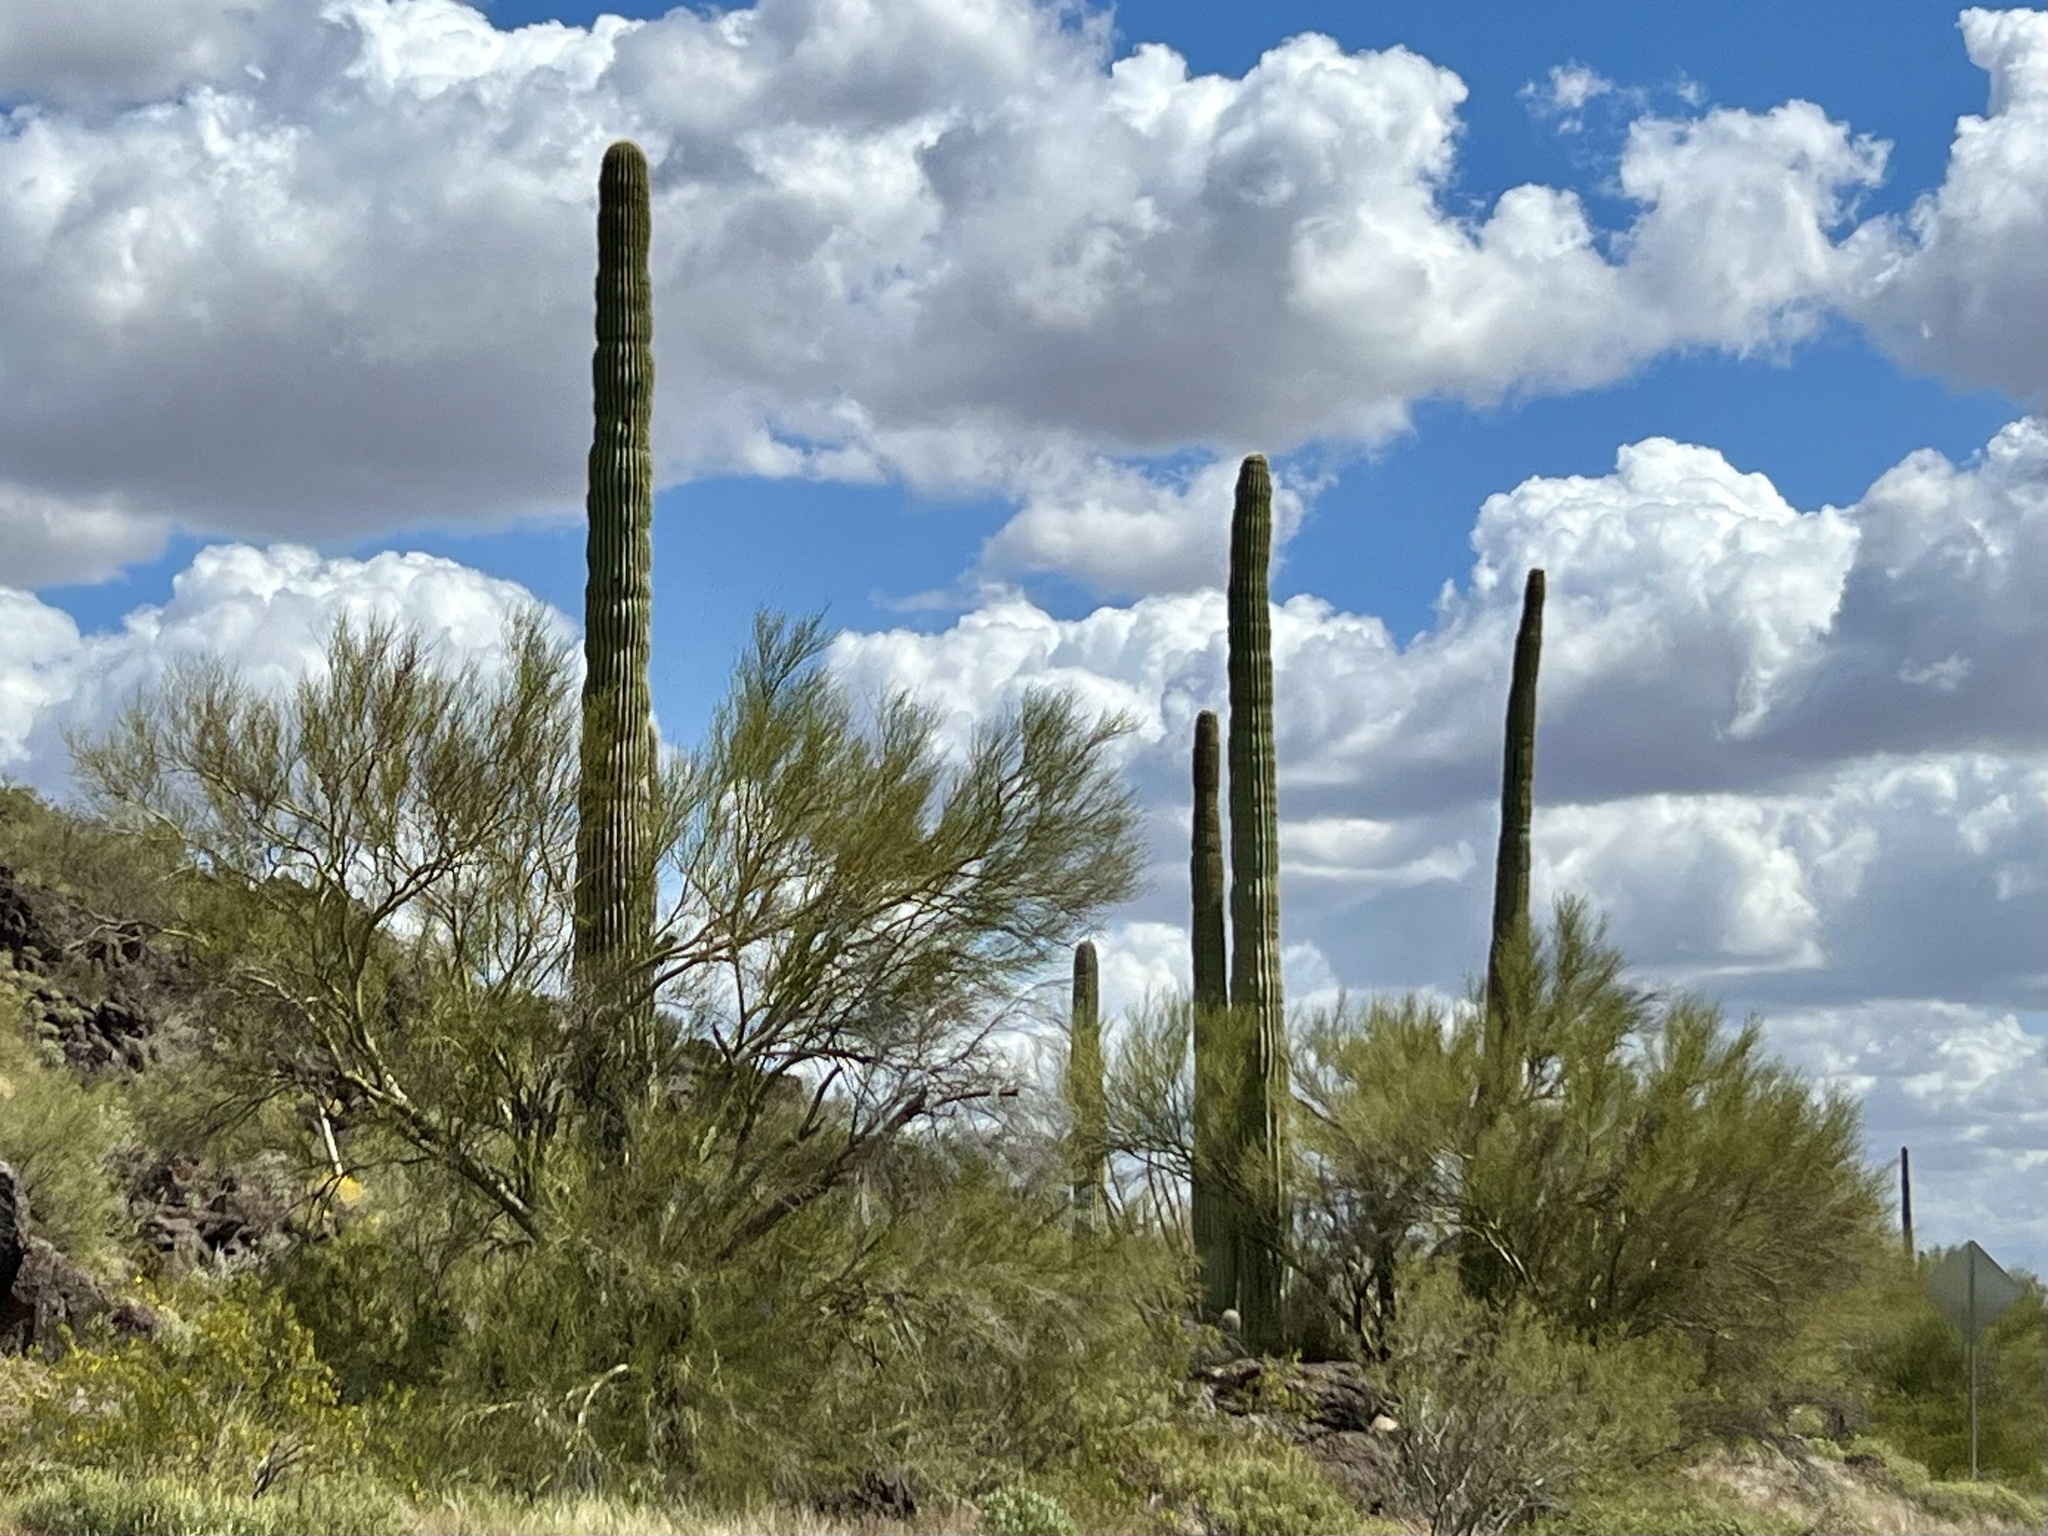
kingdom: Plantae
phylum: Tracheophyta
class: Magnoliopsida
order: Caryophyllales
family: Cactaceae
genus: Carnegiea
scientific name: Carnegiea gigantea
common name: Saguaro
